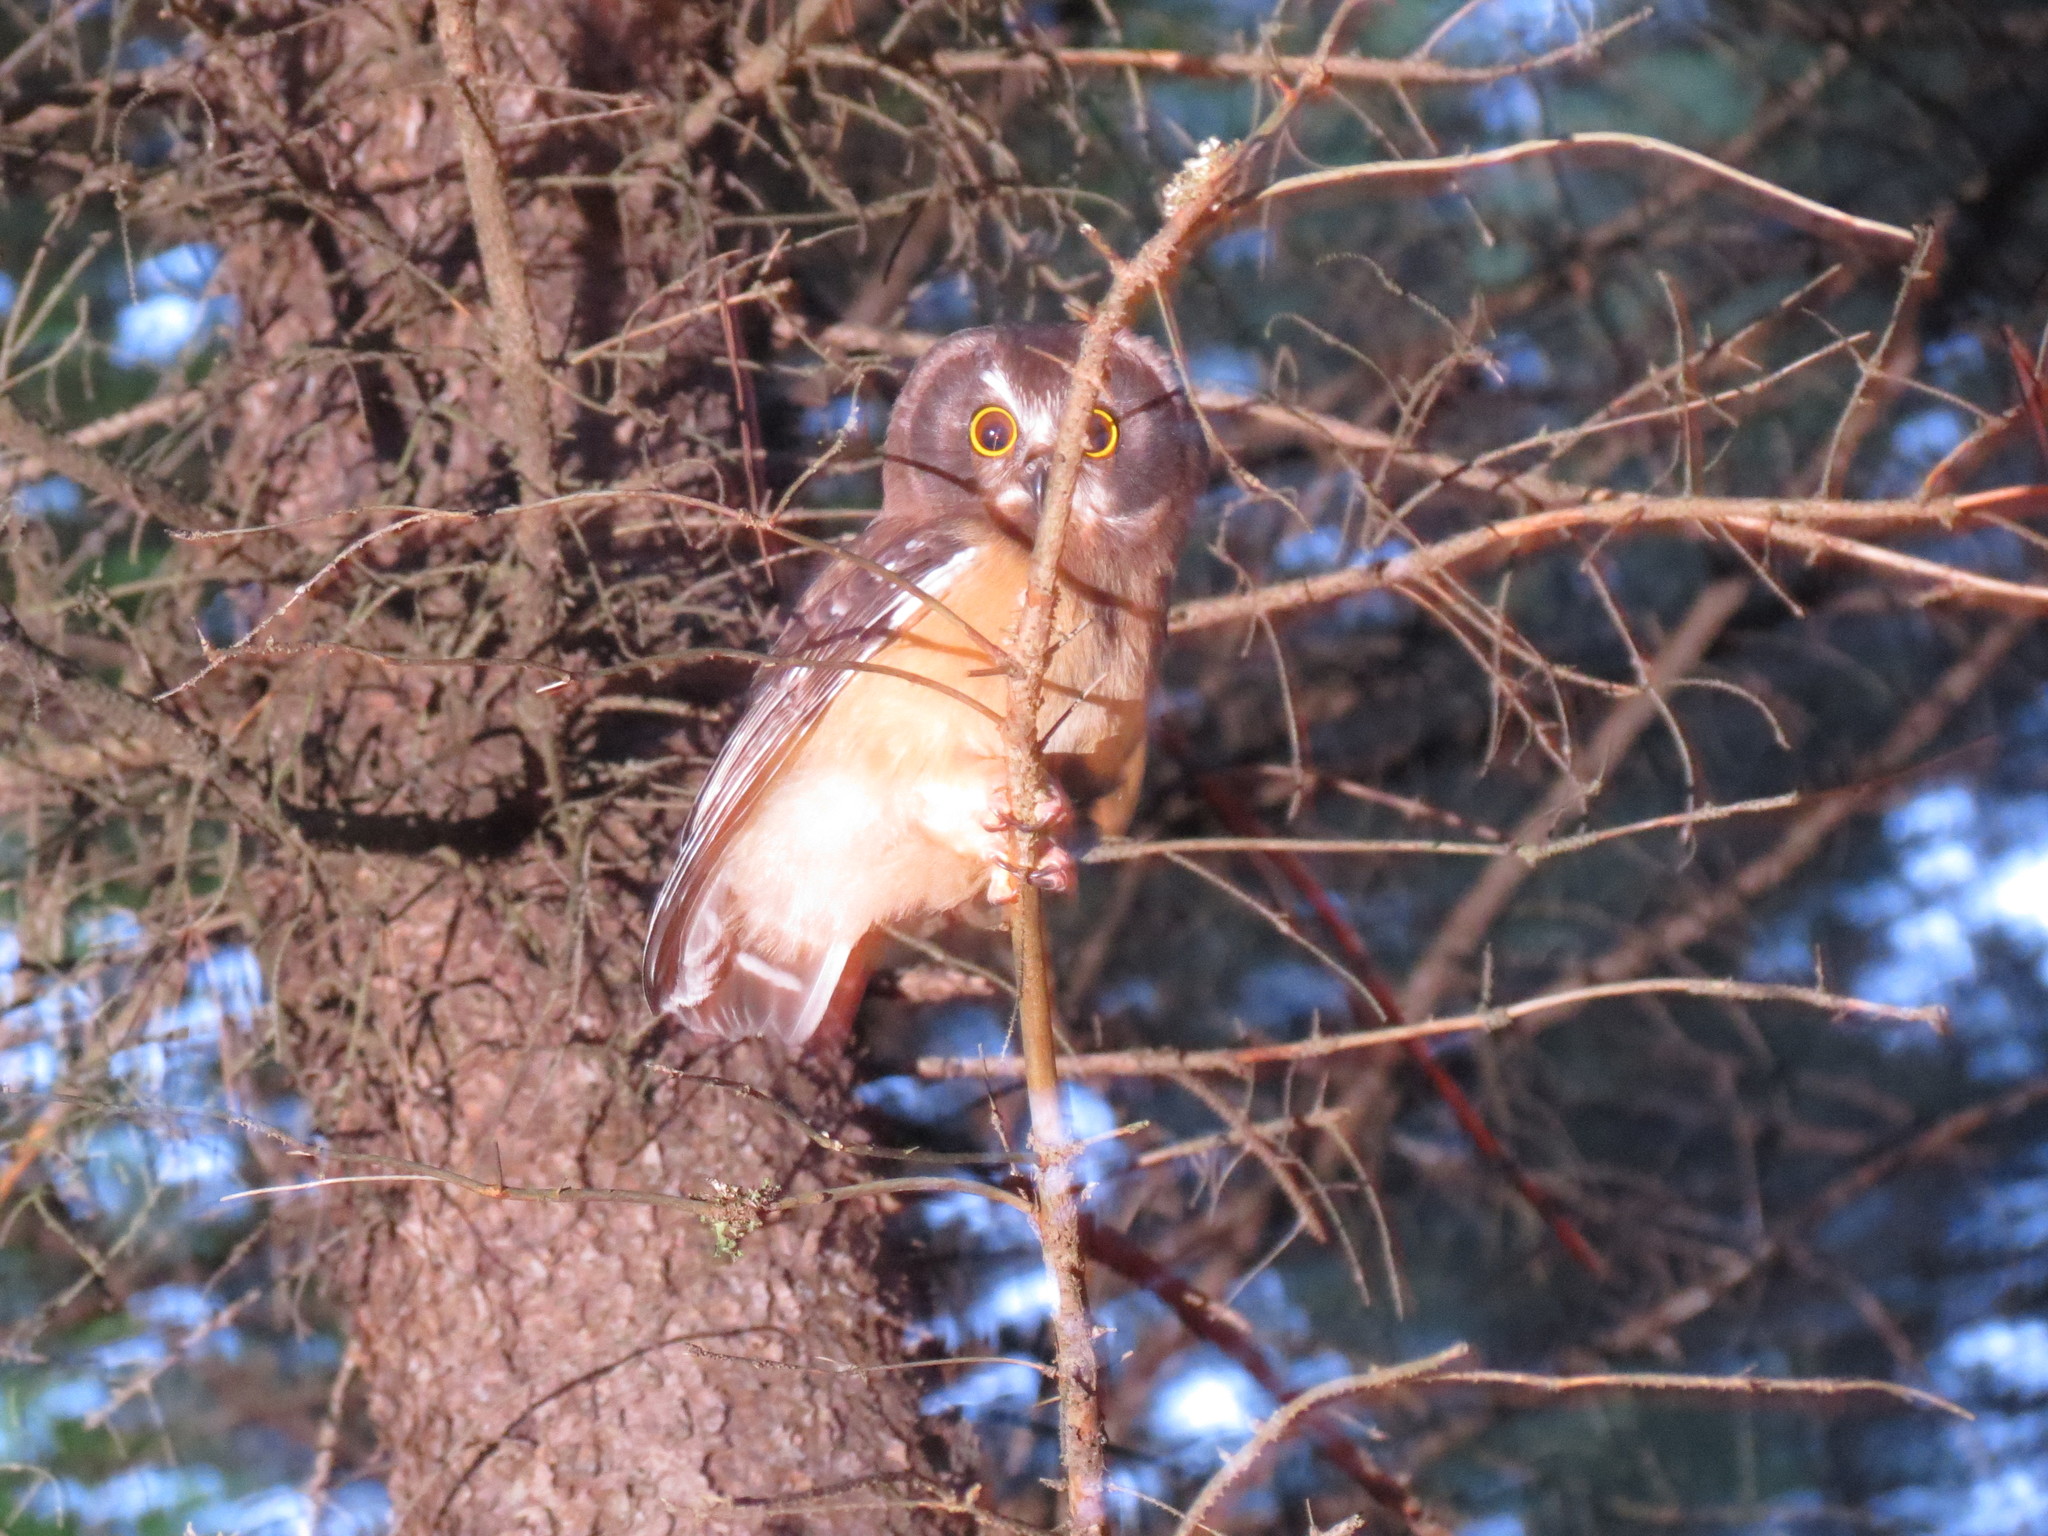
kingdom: Animalia
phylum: Chordata
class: Aves
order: Strigiformes
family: Strigidae
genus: Aegolius
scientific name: Aegolius acadicus
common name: Northern saw-whet owl
